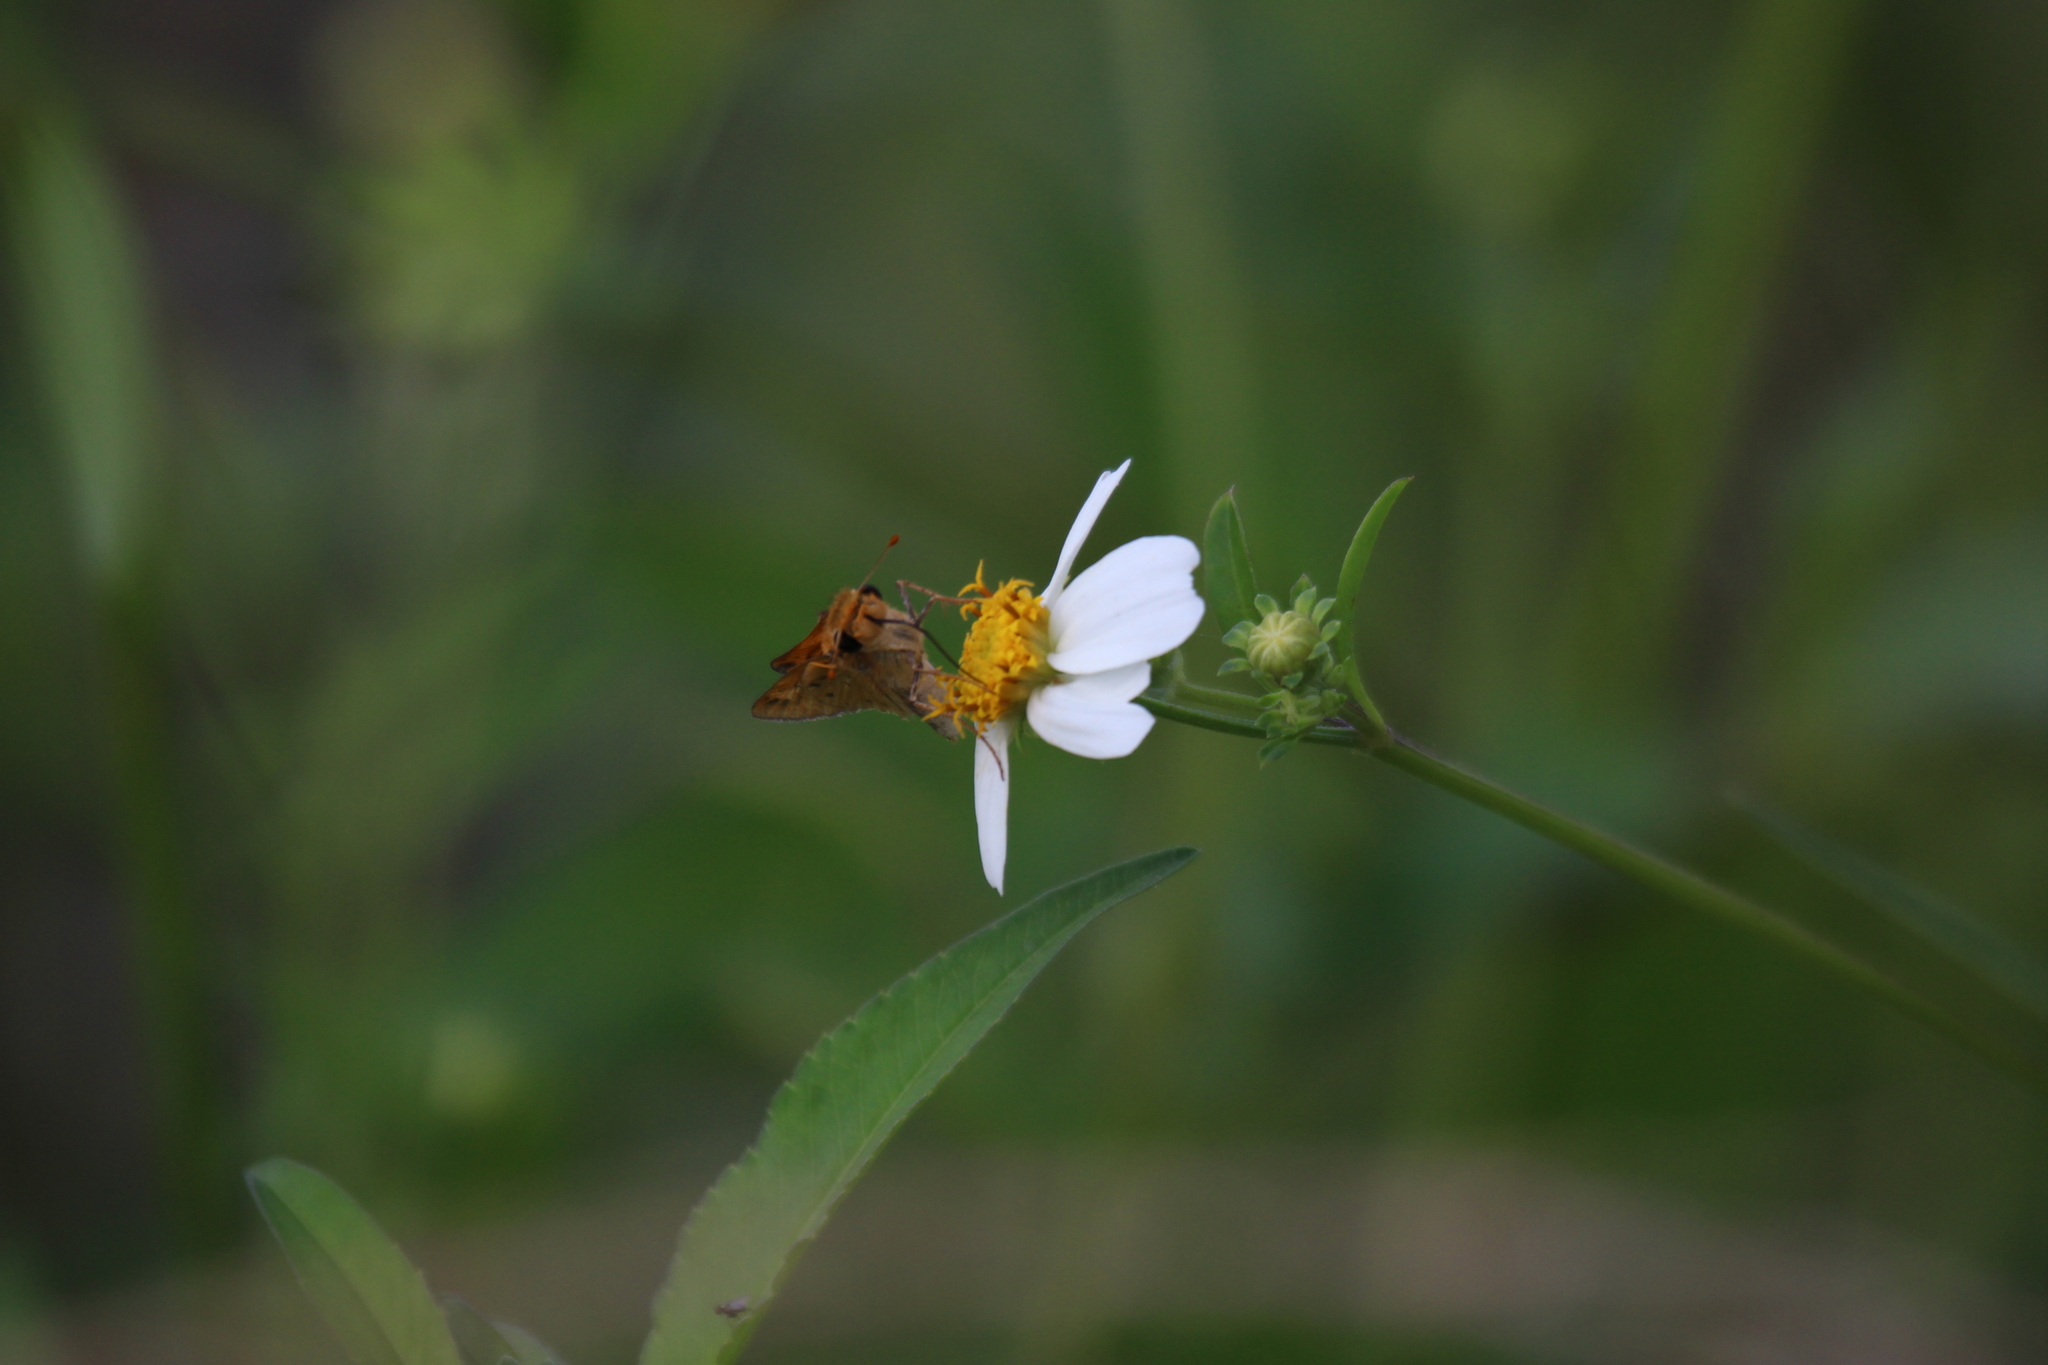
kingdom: Animalia
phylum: Arthropoda
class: Insecta
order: Lepidoptera
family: Hesperiidae
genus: Hylephila
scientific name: Hylephila phyleus
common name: Fiery skipper
